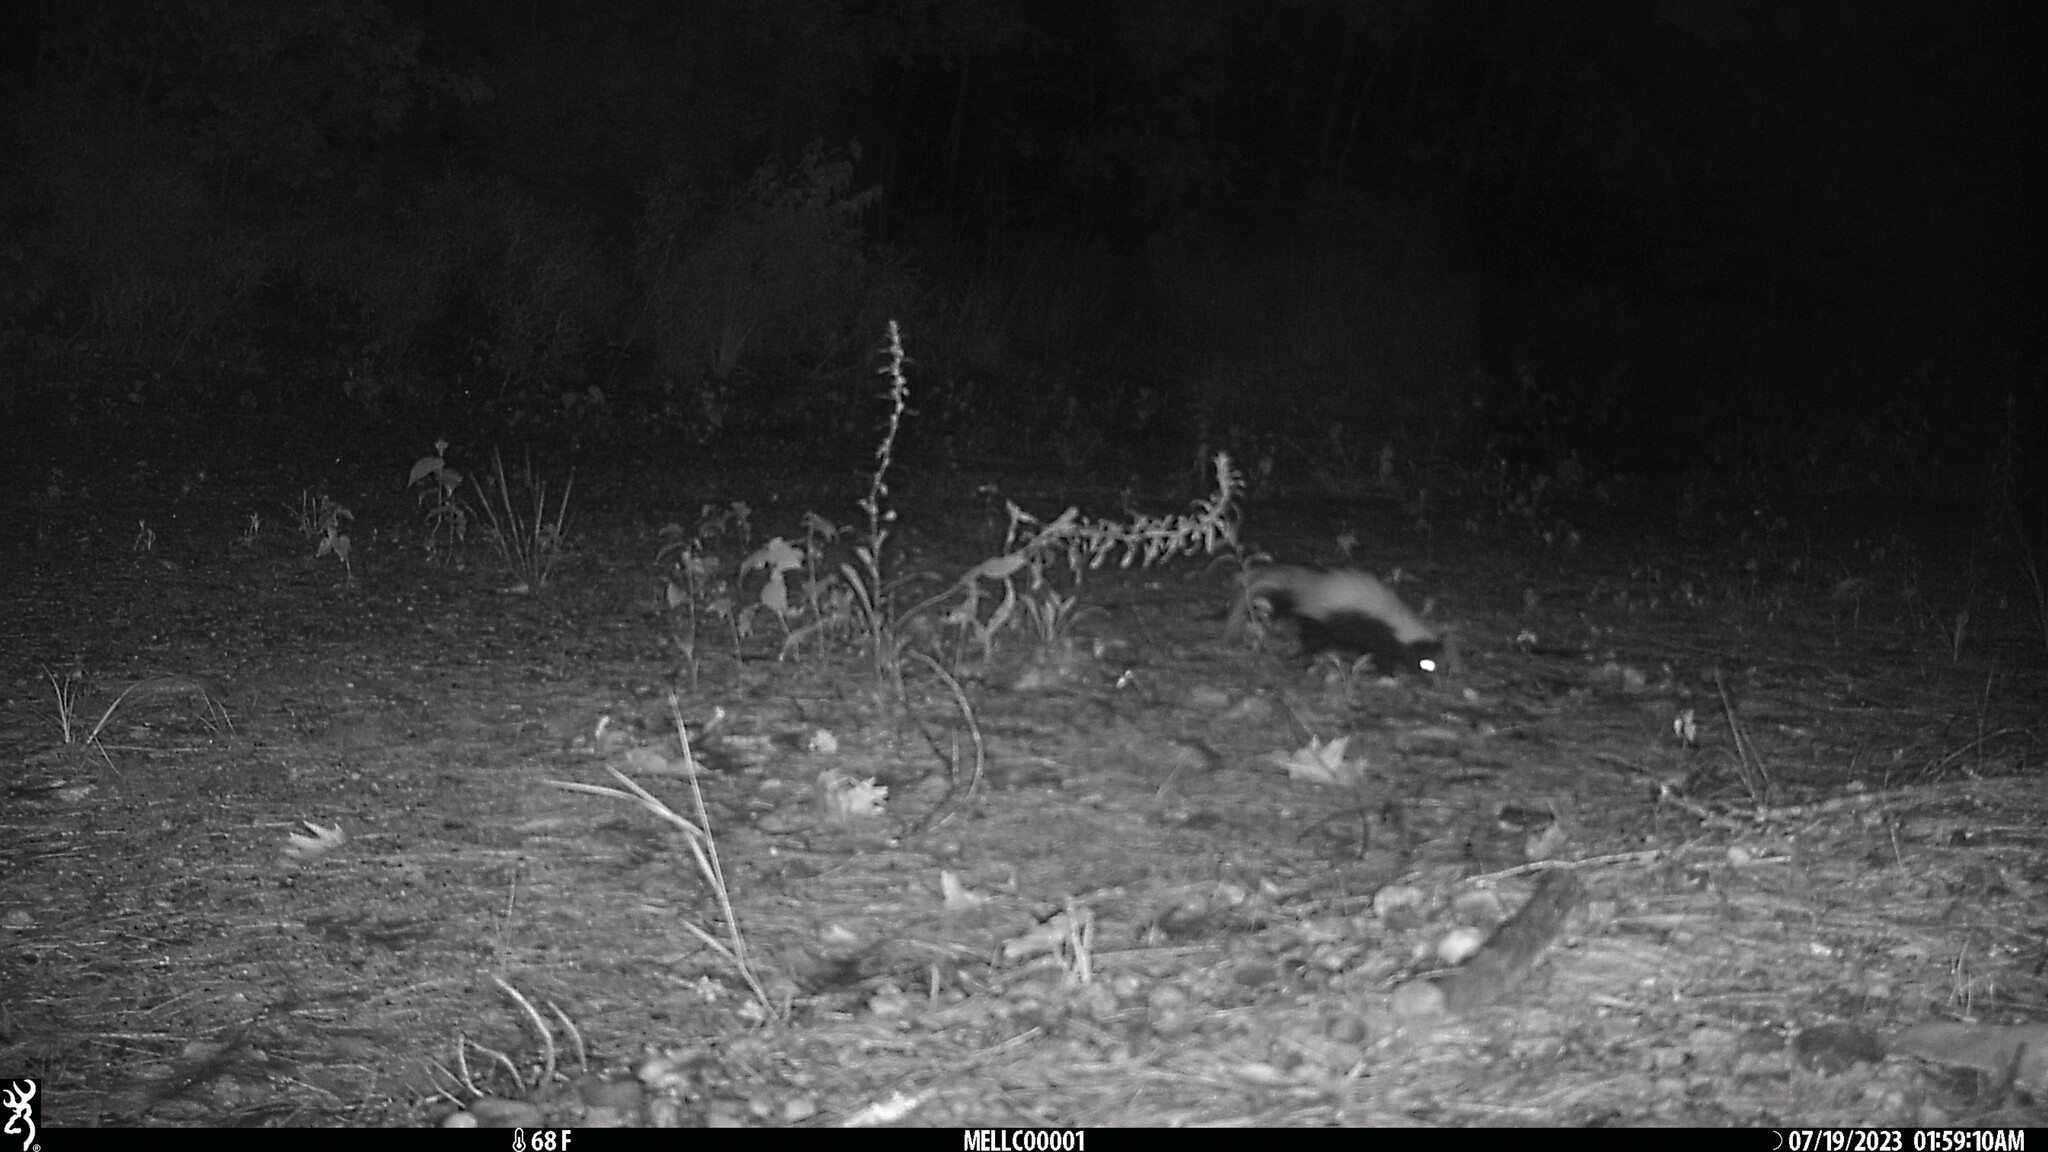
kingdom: Animalia
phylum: Chordata
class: Mammalia
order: Carnivora
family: Mephitidae
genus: Mephitis
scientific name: Mephitis mephitis
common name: Striped skunk
